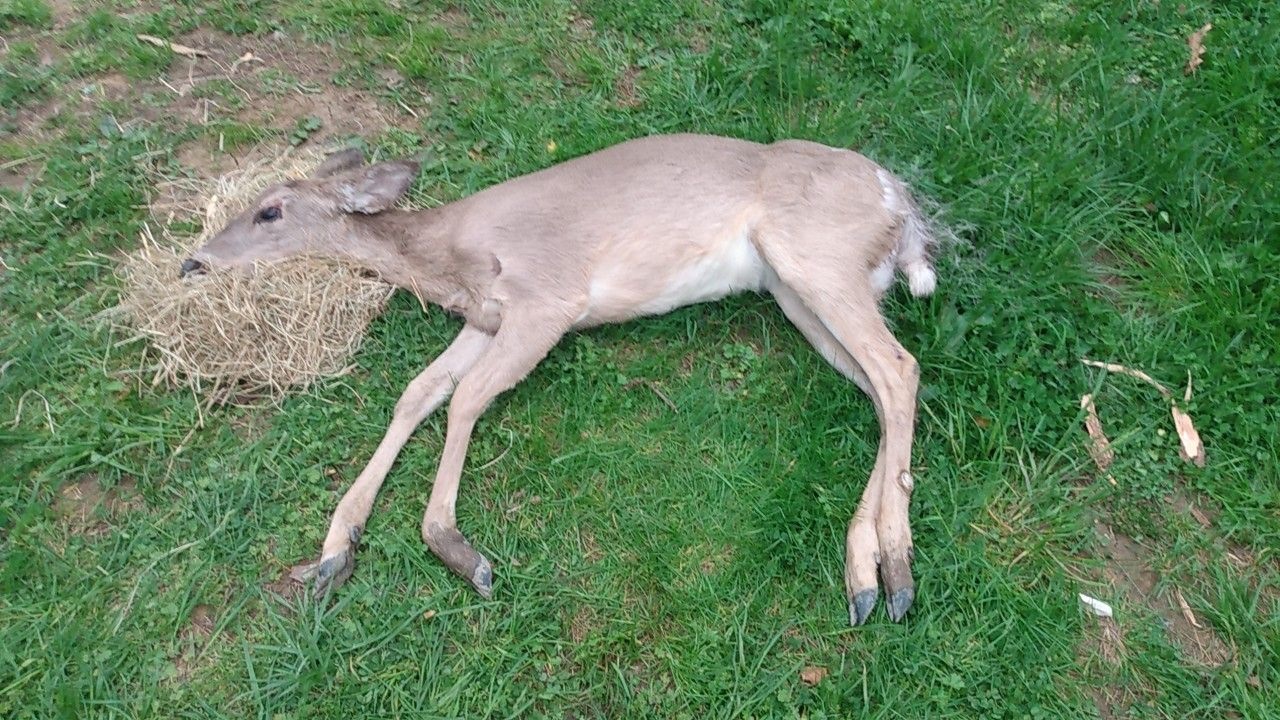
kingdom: Animalia
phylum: Chordata
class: Mammalia
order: Artiodactyla
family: Cervidae
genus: Odocoileus
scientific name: Odocoileus virginianus
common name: White-tailed deer
